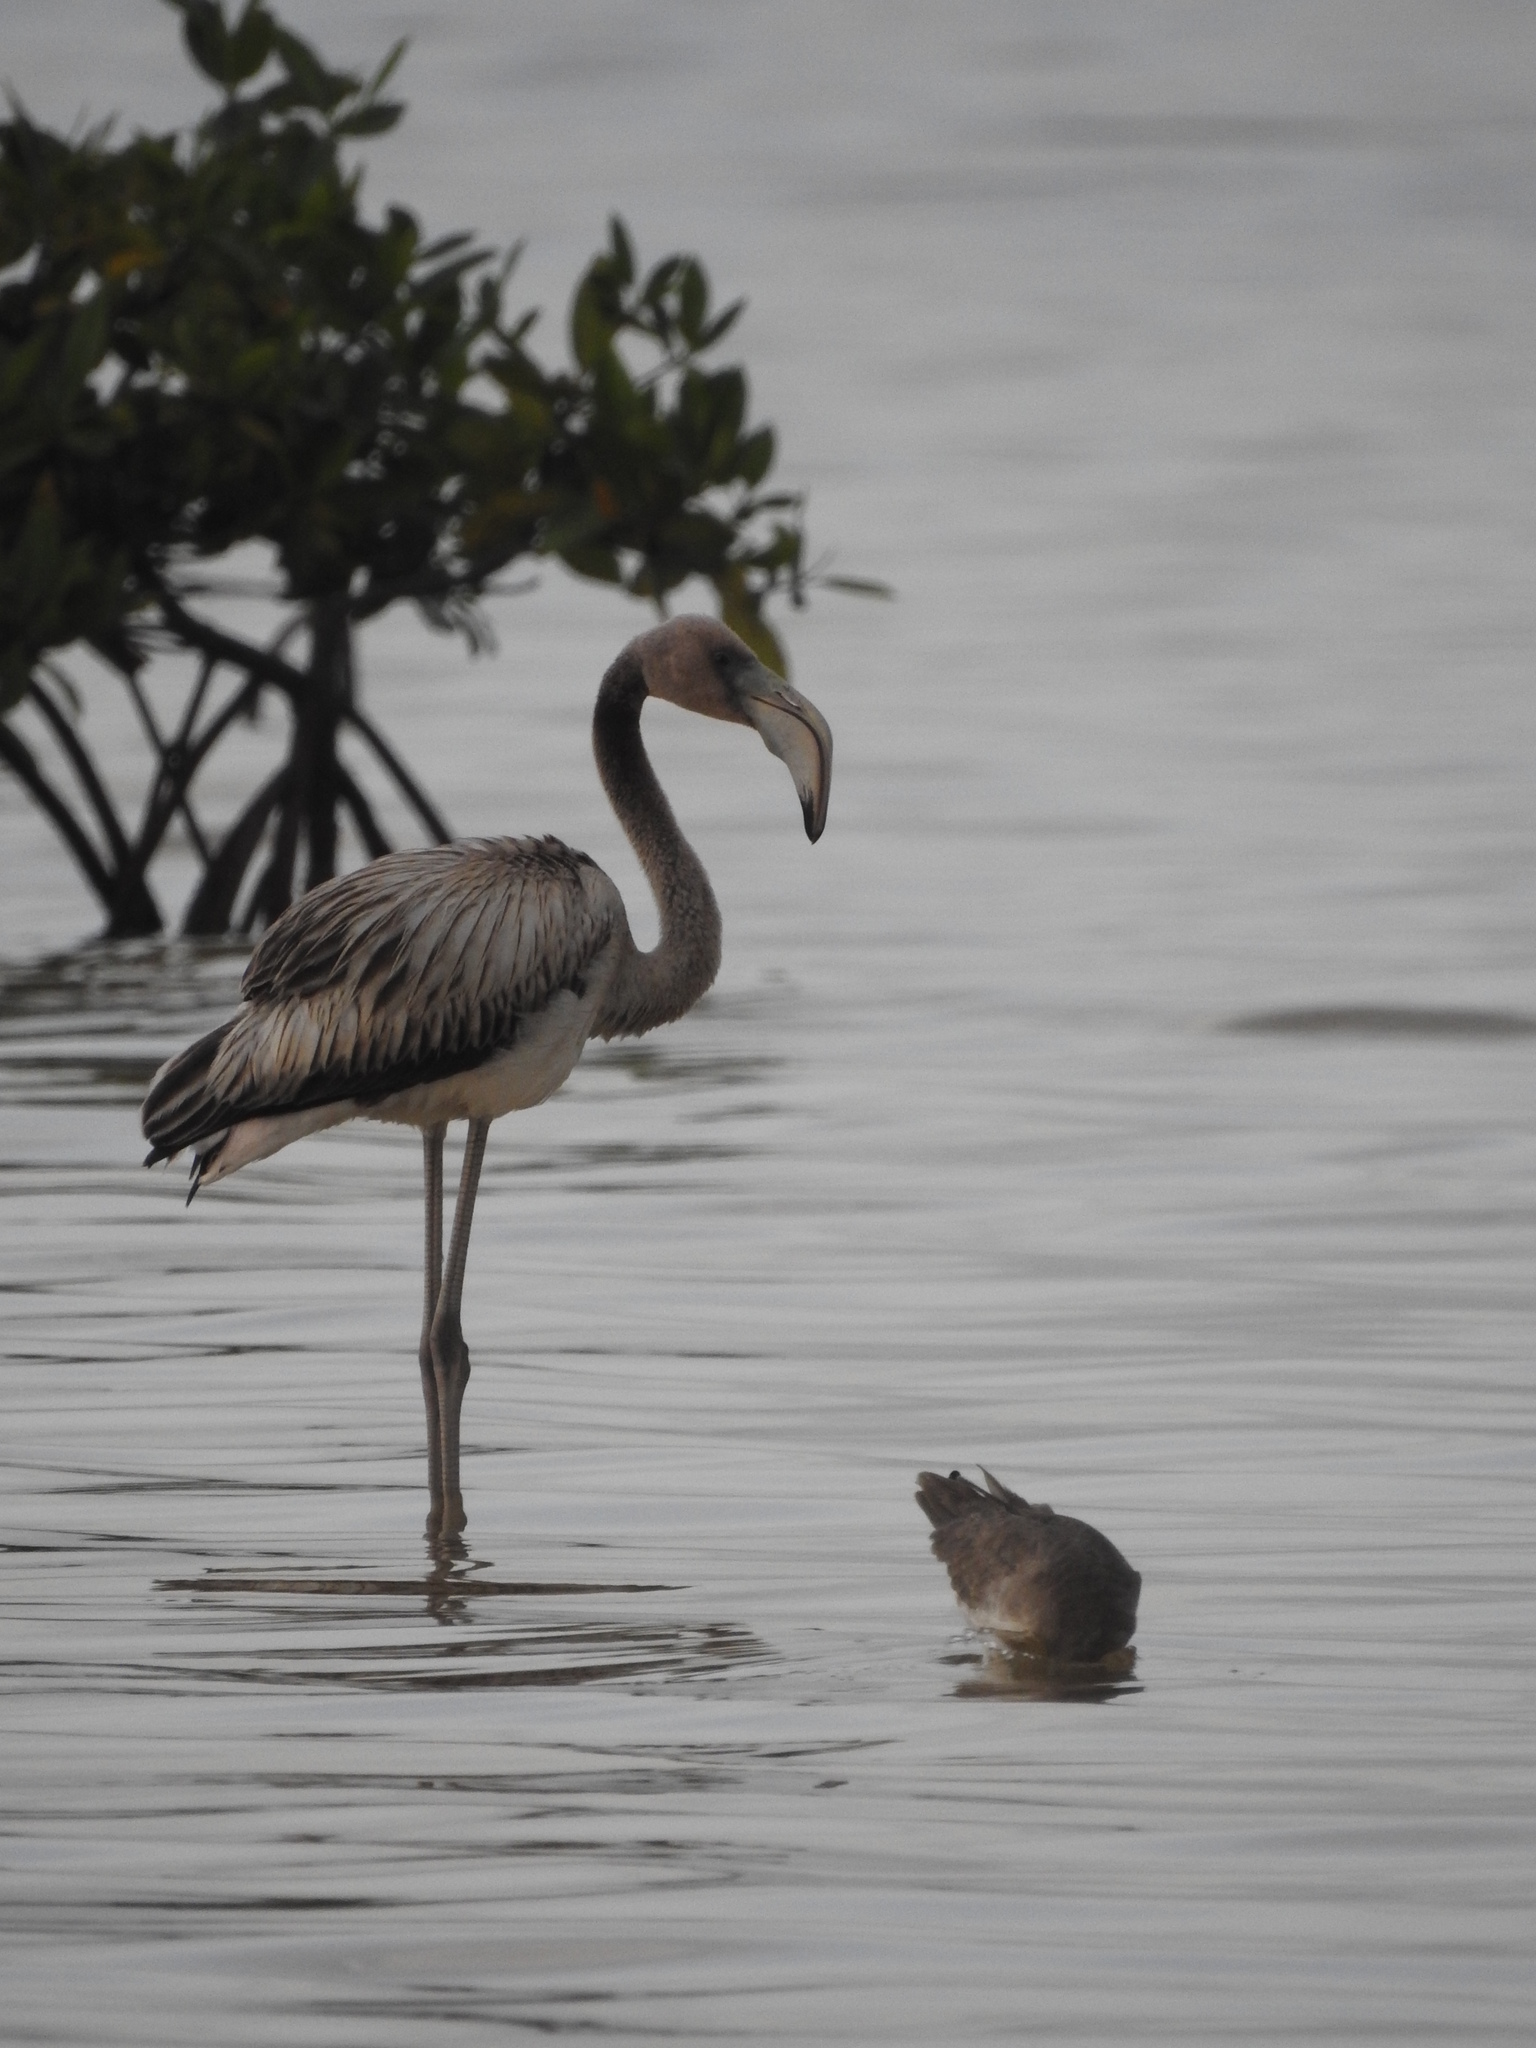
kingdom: Animalia
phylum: Chordata
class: Aves
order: Phoenicopteriformes
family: Phoenicopteridae
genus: Phoenicopterus
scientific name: Phoenicopterus ruber
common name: American flamingo
